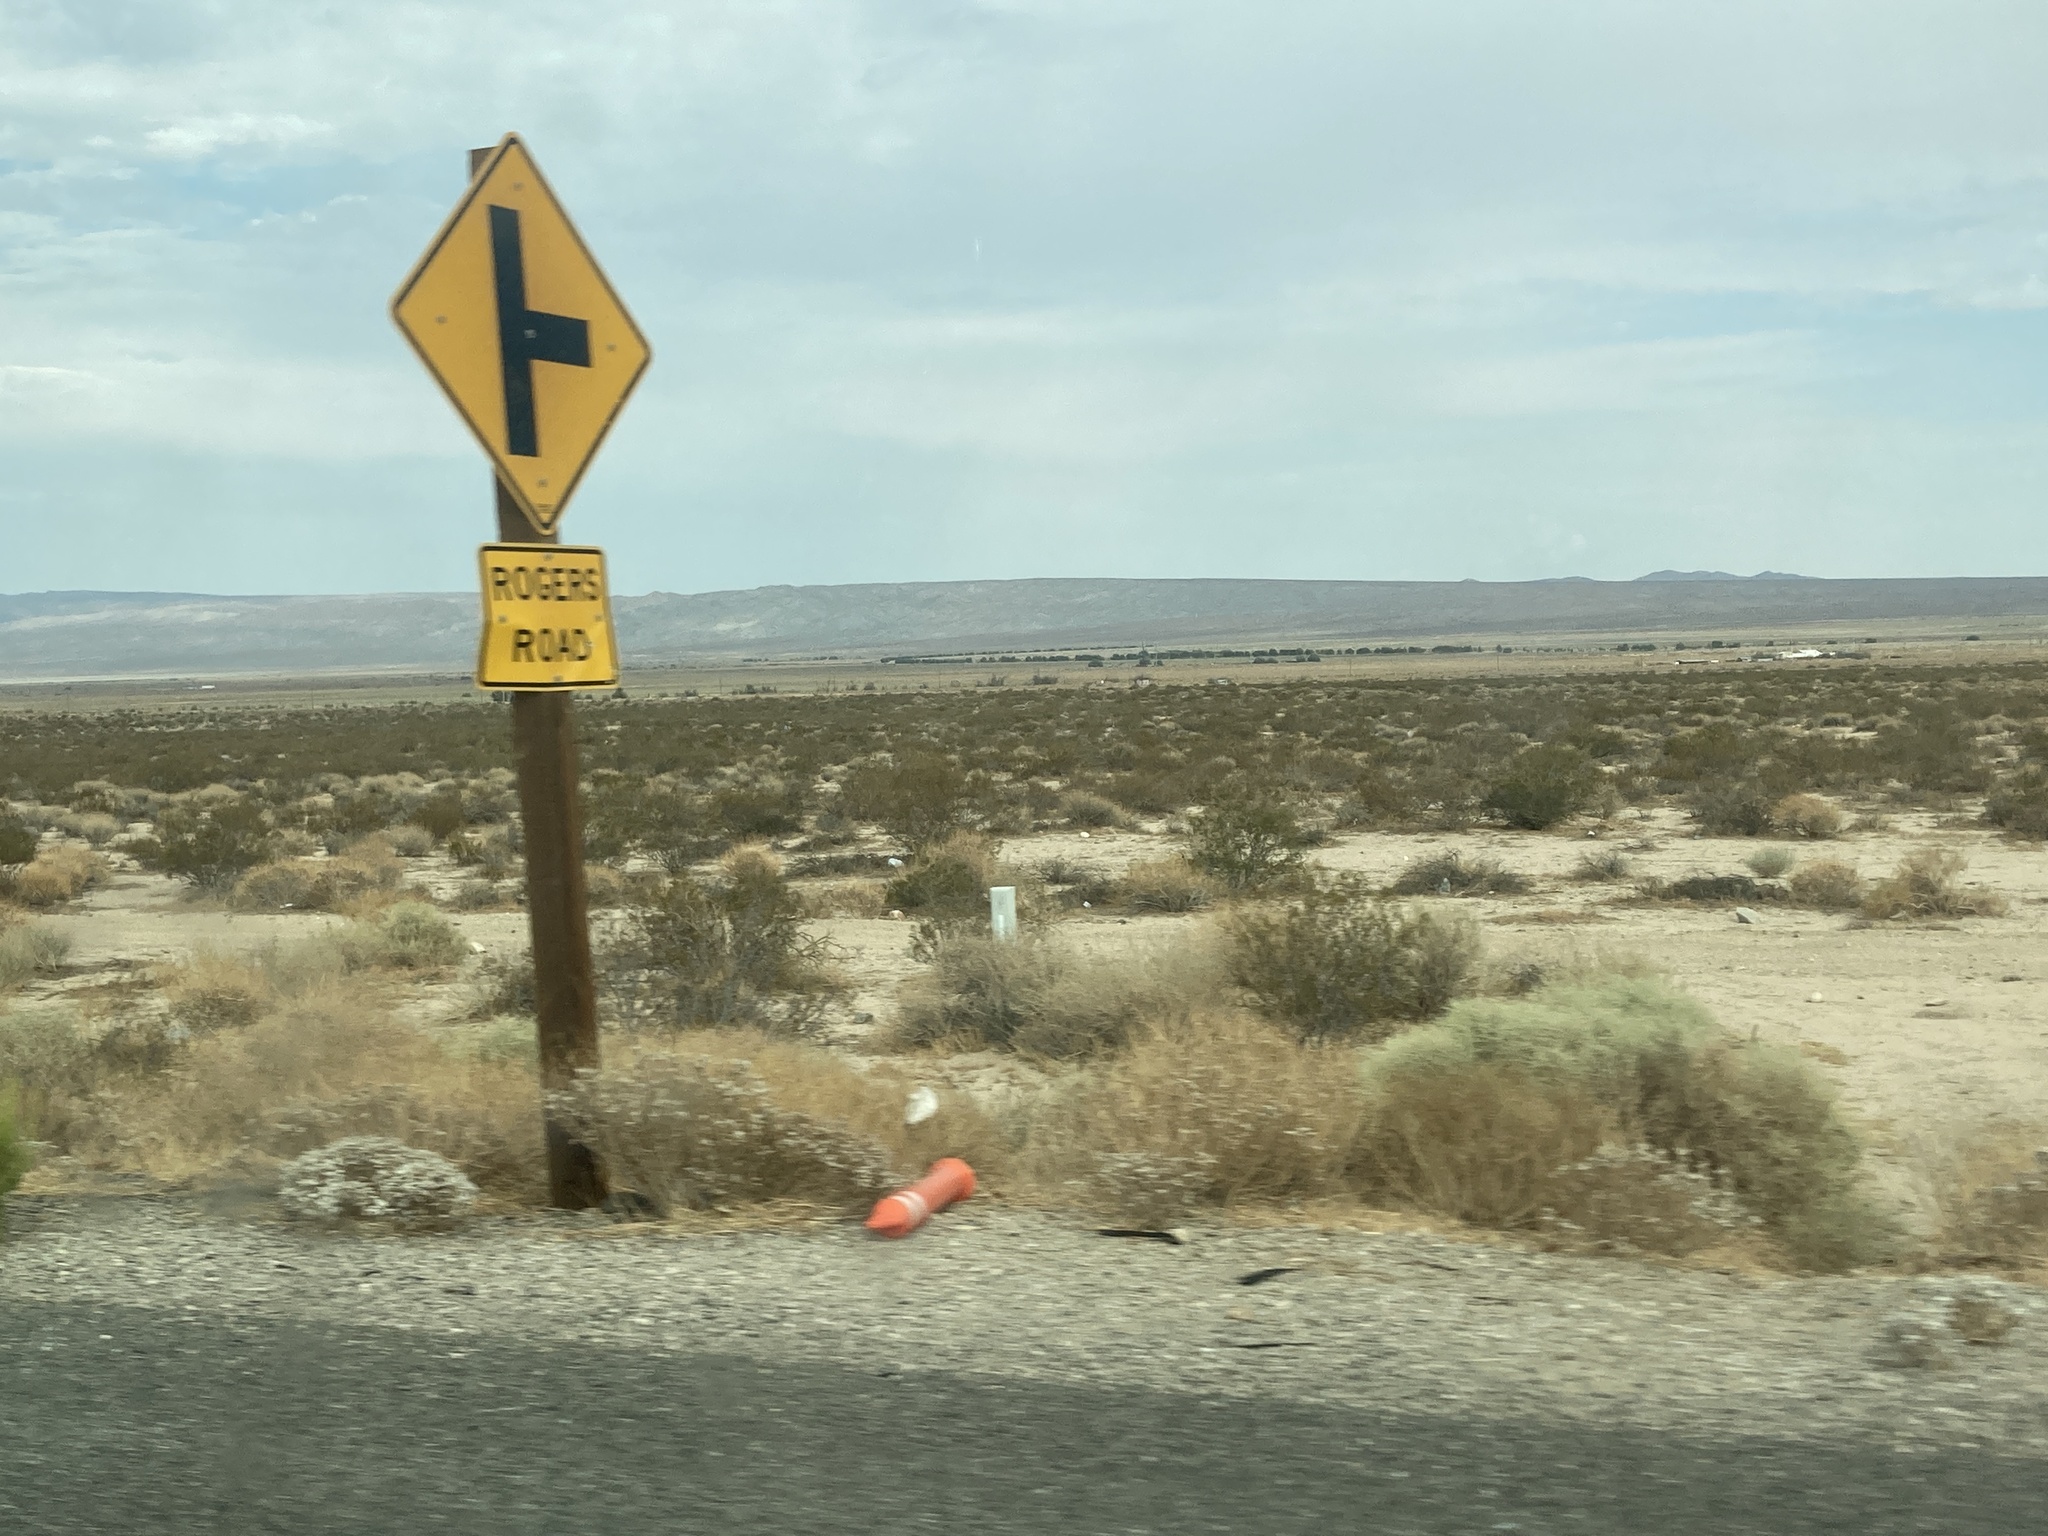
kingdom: Plantae
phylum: Tracheophyta
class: Magnoliopsida
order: Zygophyllales
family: Zygophyllaceae
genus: Larrea
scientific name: Larrea tridentata
